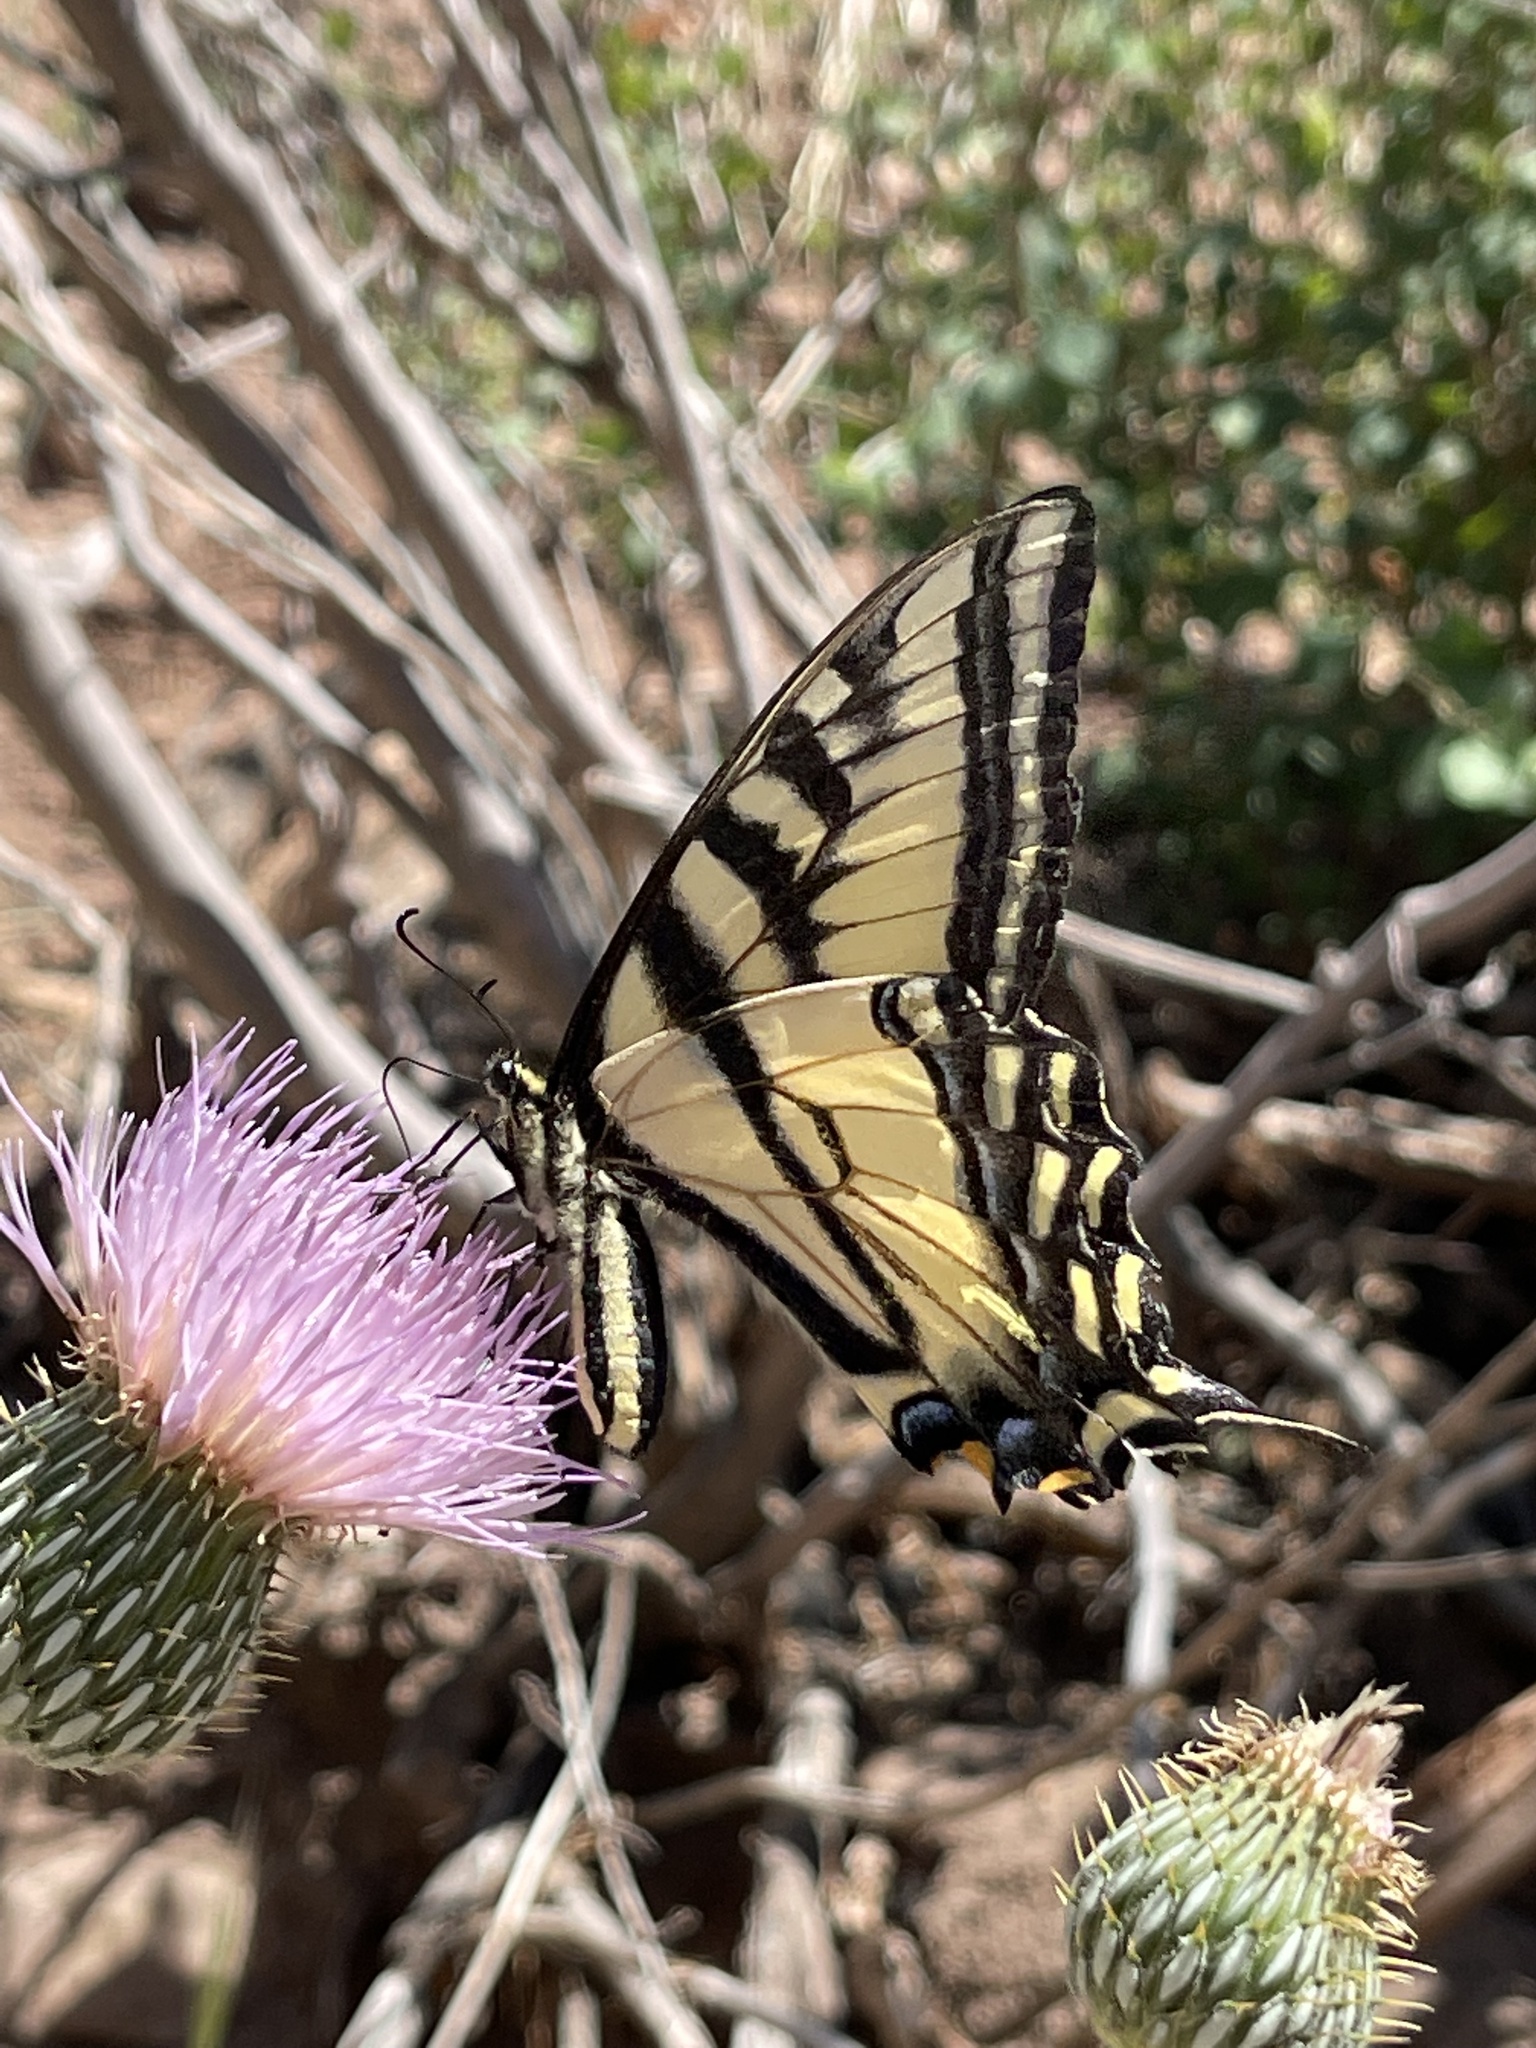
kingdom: Animalia
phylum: Arthropoda
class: Insecta
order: Lepidoptera
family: Papilionidae
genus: Papilio
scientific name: Papilio rutulus
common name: Western tiger swallowtail
